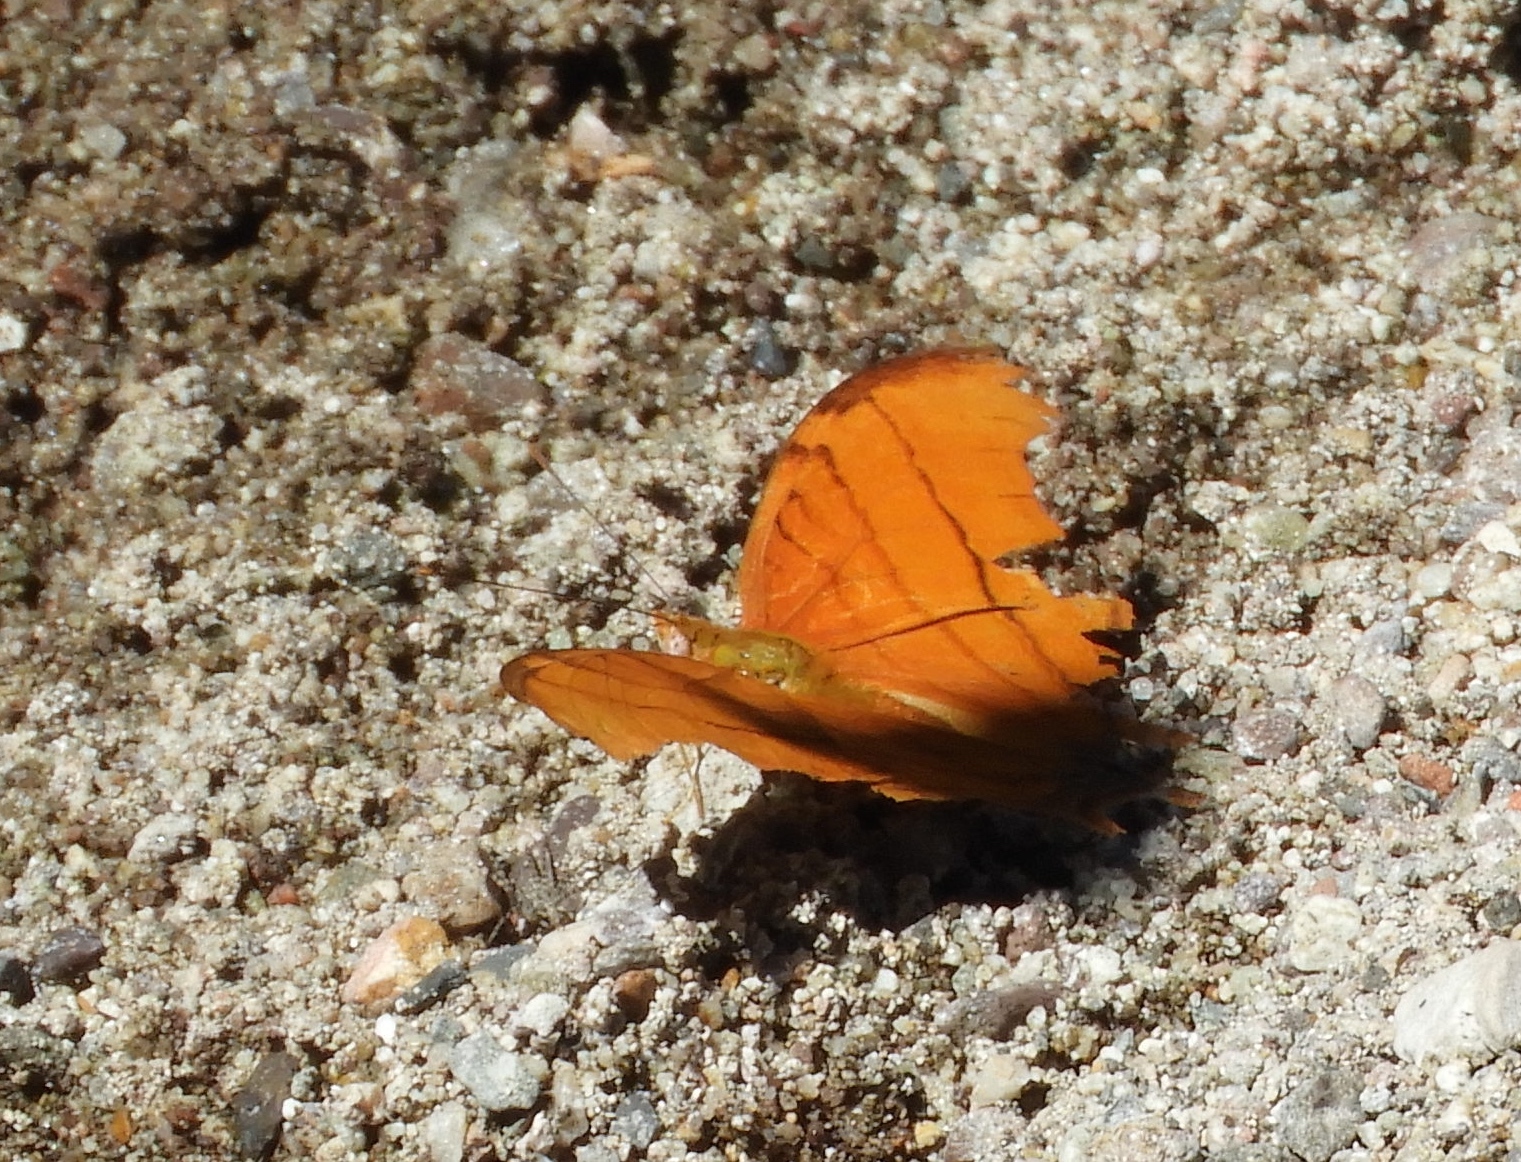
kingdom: Animalia
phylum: Arthropoda
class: Insecta
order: Lepidoptera
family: Nymphalidae
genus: Marpesia
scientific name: Marpesia petreus
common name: Red dagger wing
